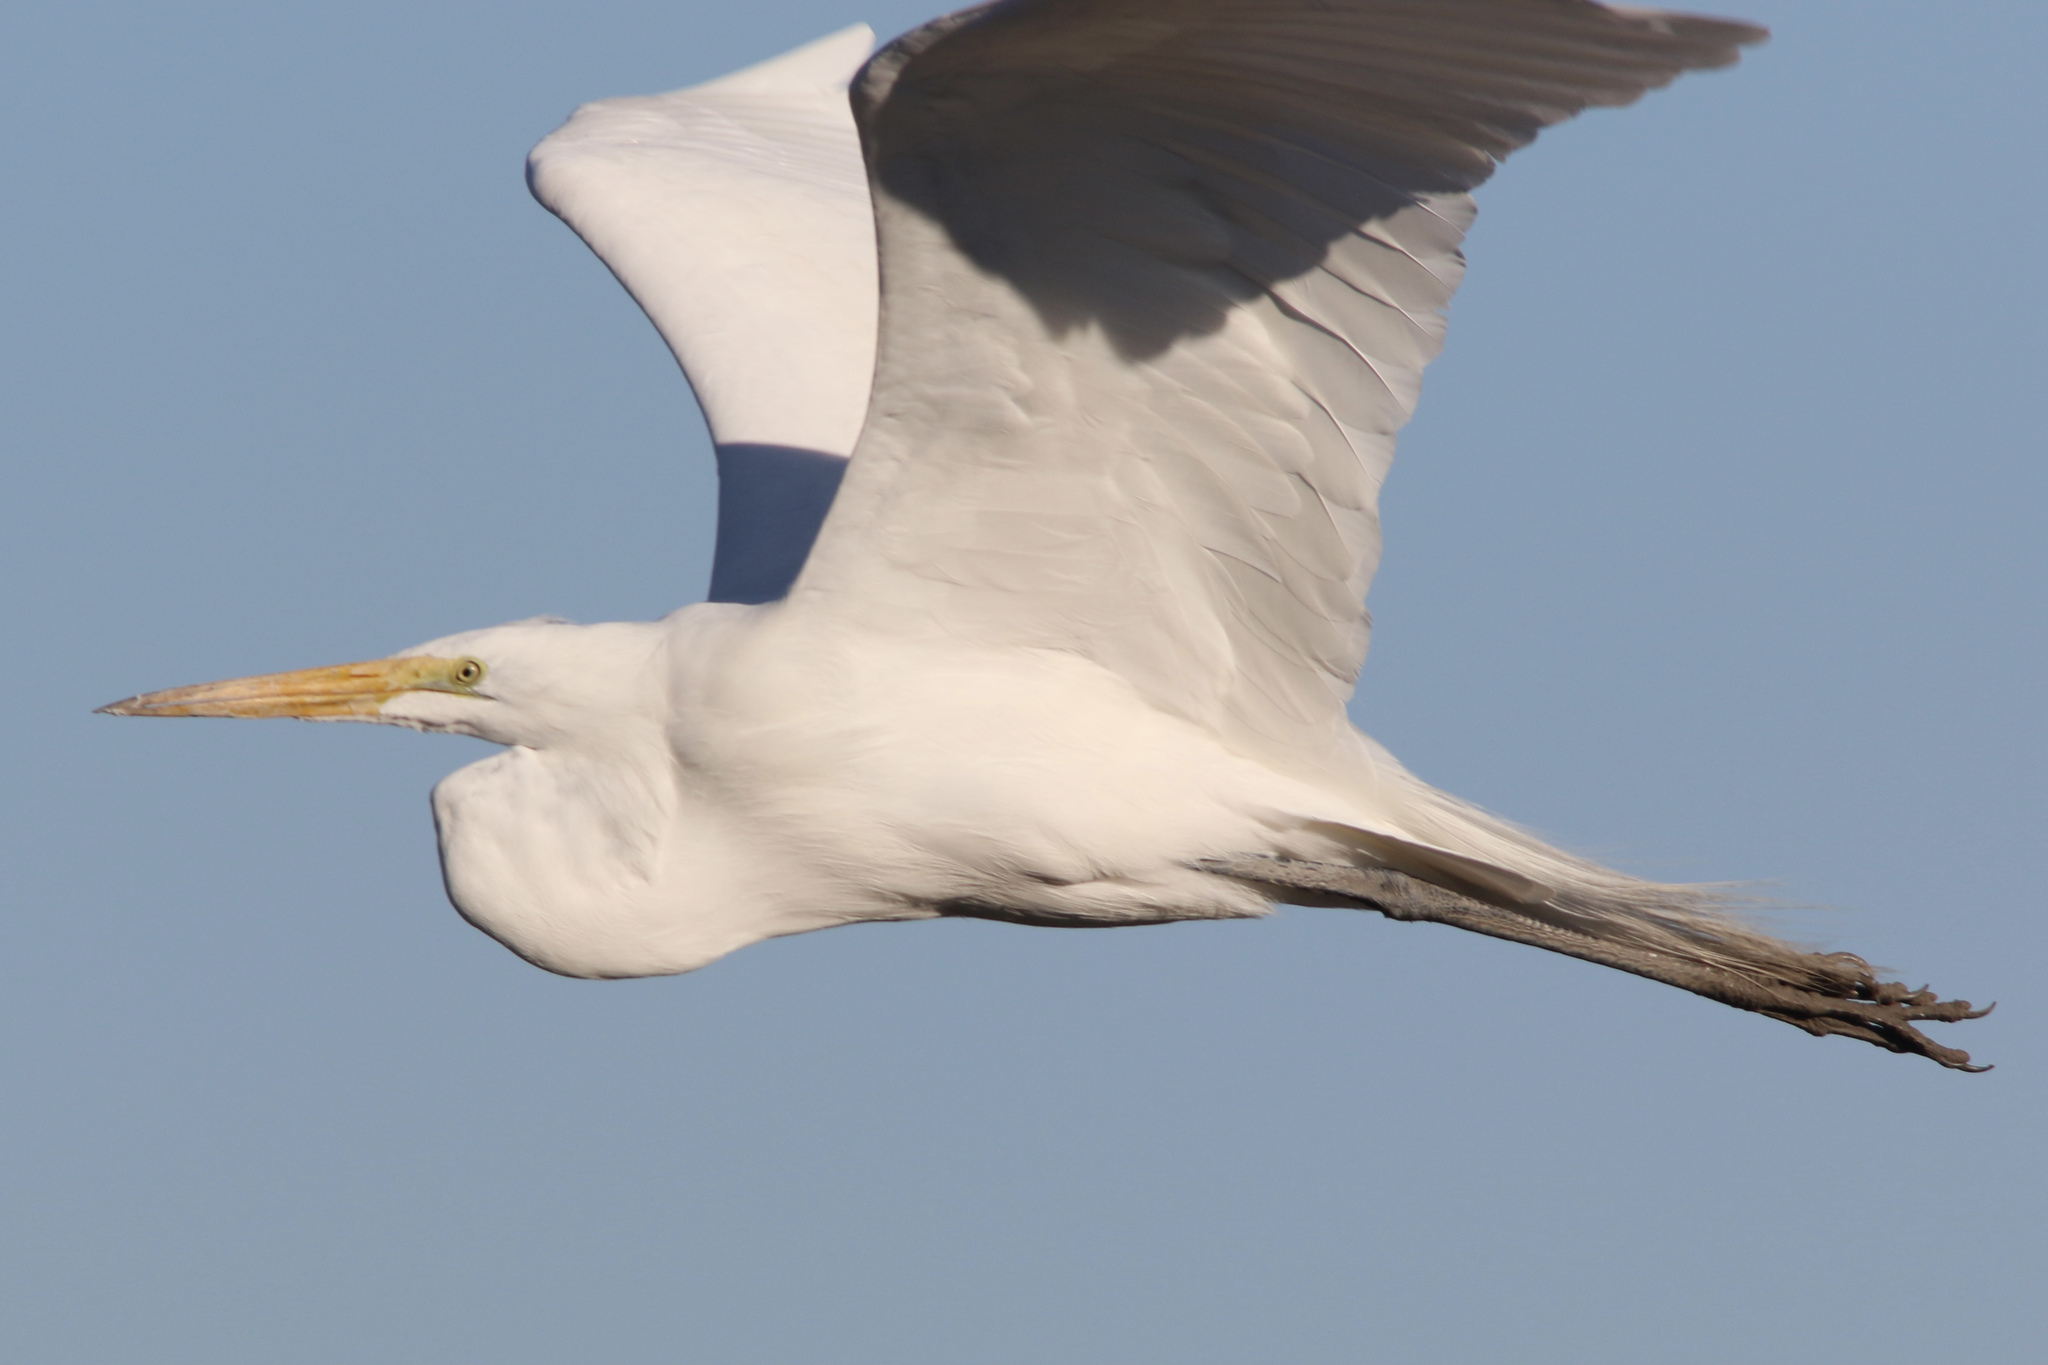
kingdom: Animalia
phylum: Chordata
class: Aves
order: Pelecaniformes
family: Ardeidae
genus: Ardea
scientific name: Ardea alba
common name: Great egret
